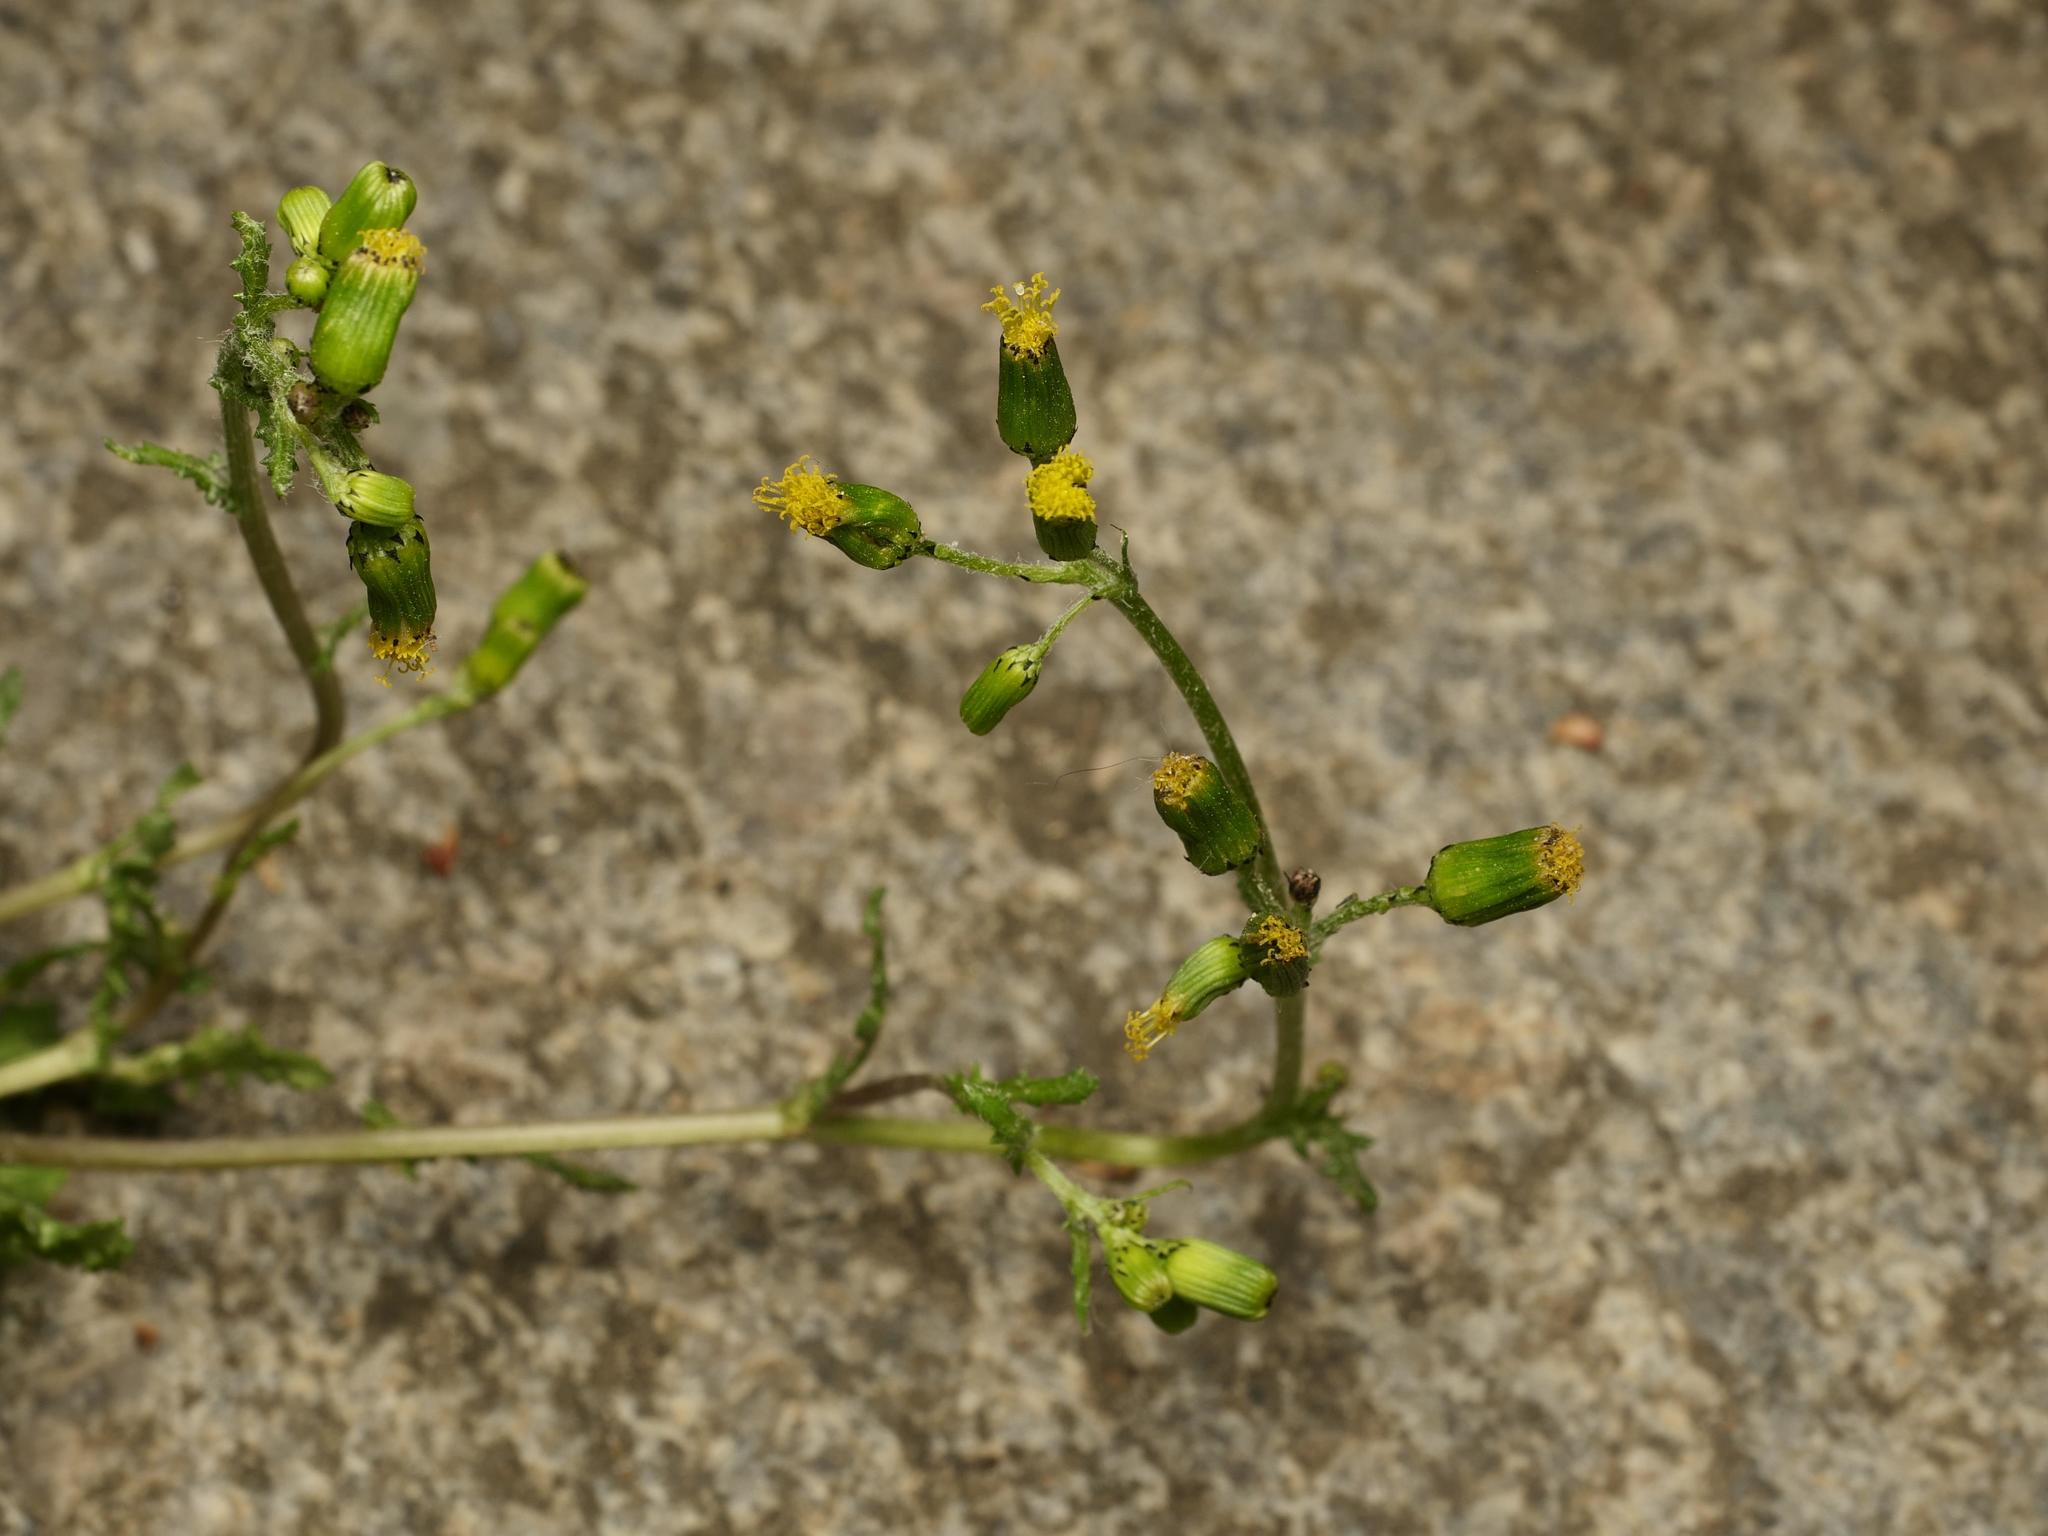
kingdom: Plantae
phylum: Tracheophyta
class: Magnoliopsida
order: Asterales
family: Asteraceae
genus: Senecio
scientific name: Senecio vulgaris
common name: Old-man-in-the-spring
